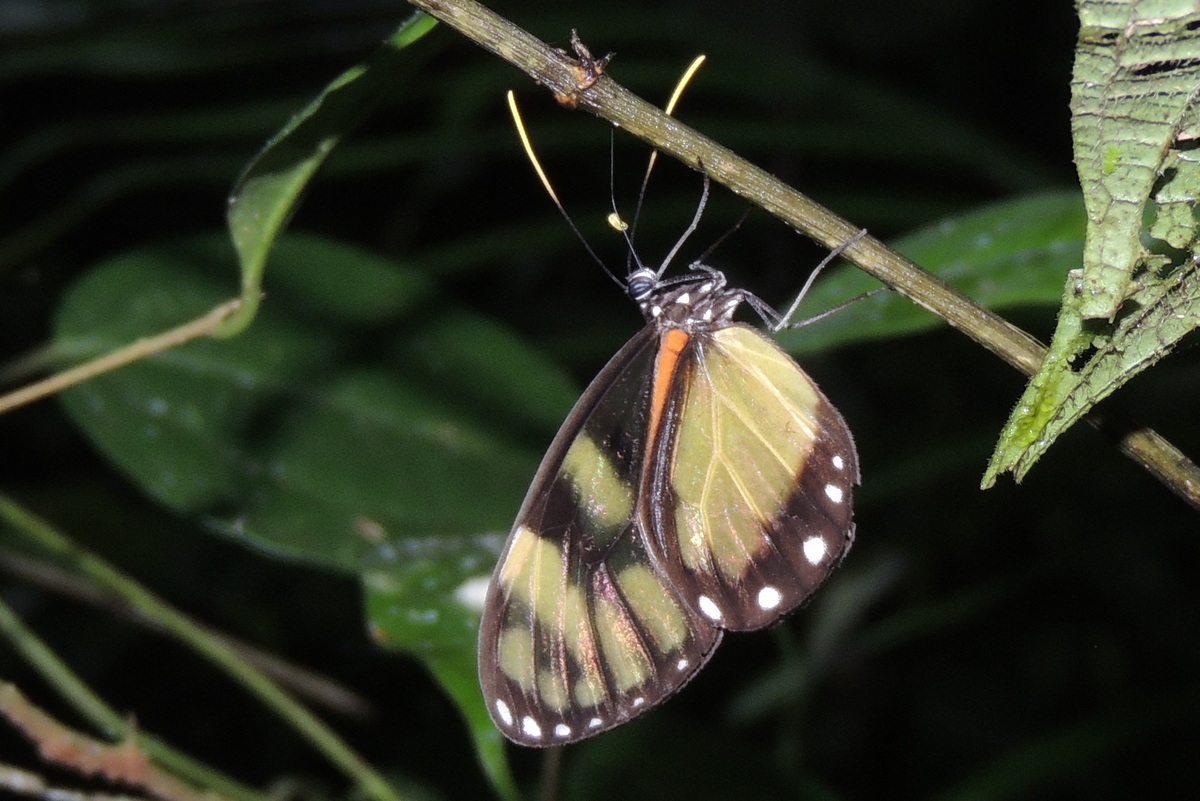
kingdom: Animalia
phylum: Arthropoda
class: Insecta
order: Lepidoptera
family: Nymphalidae
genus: Godyris
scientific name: Godyris zavaleta
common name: Zavaleta glasswing
